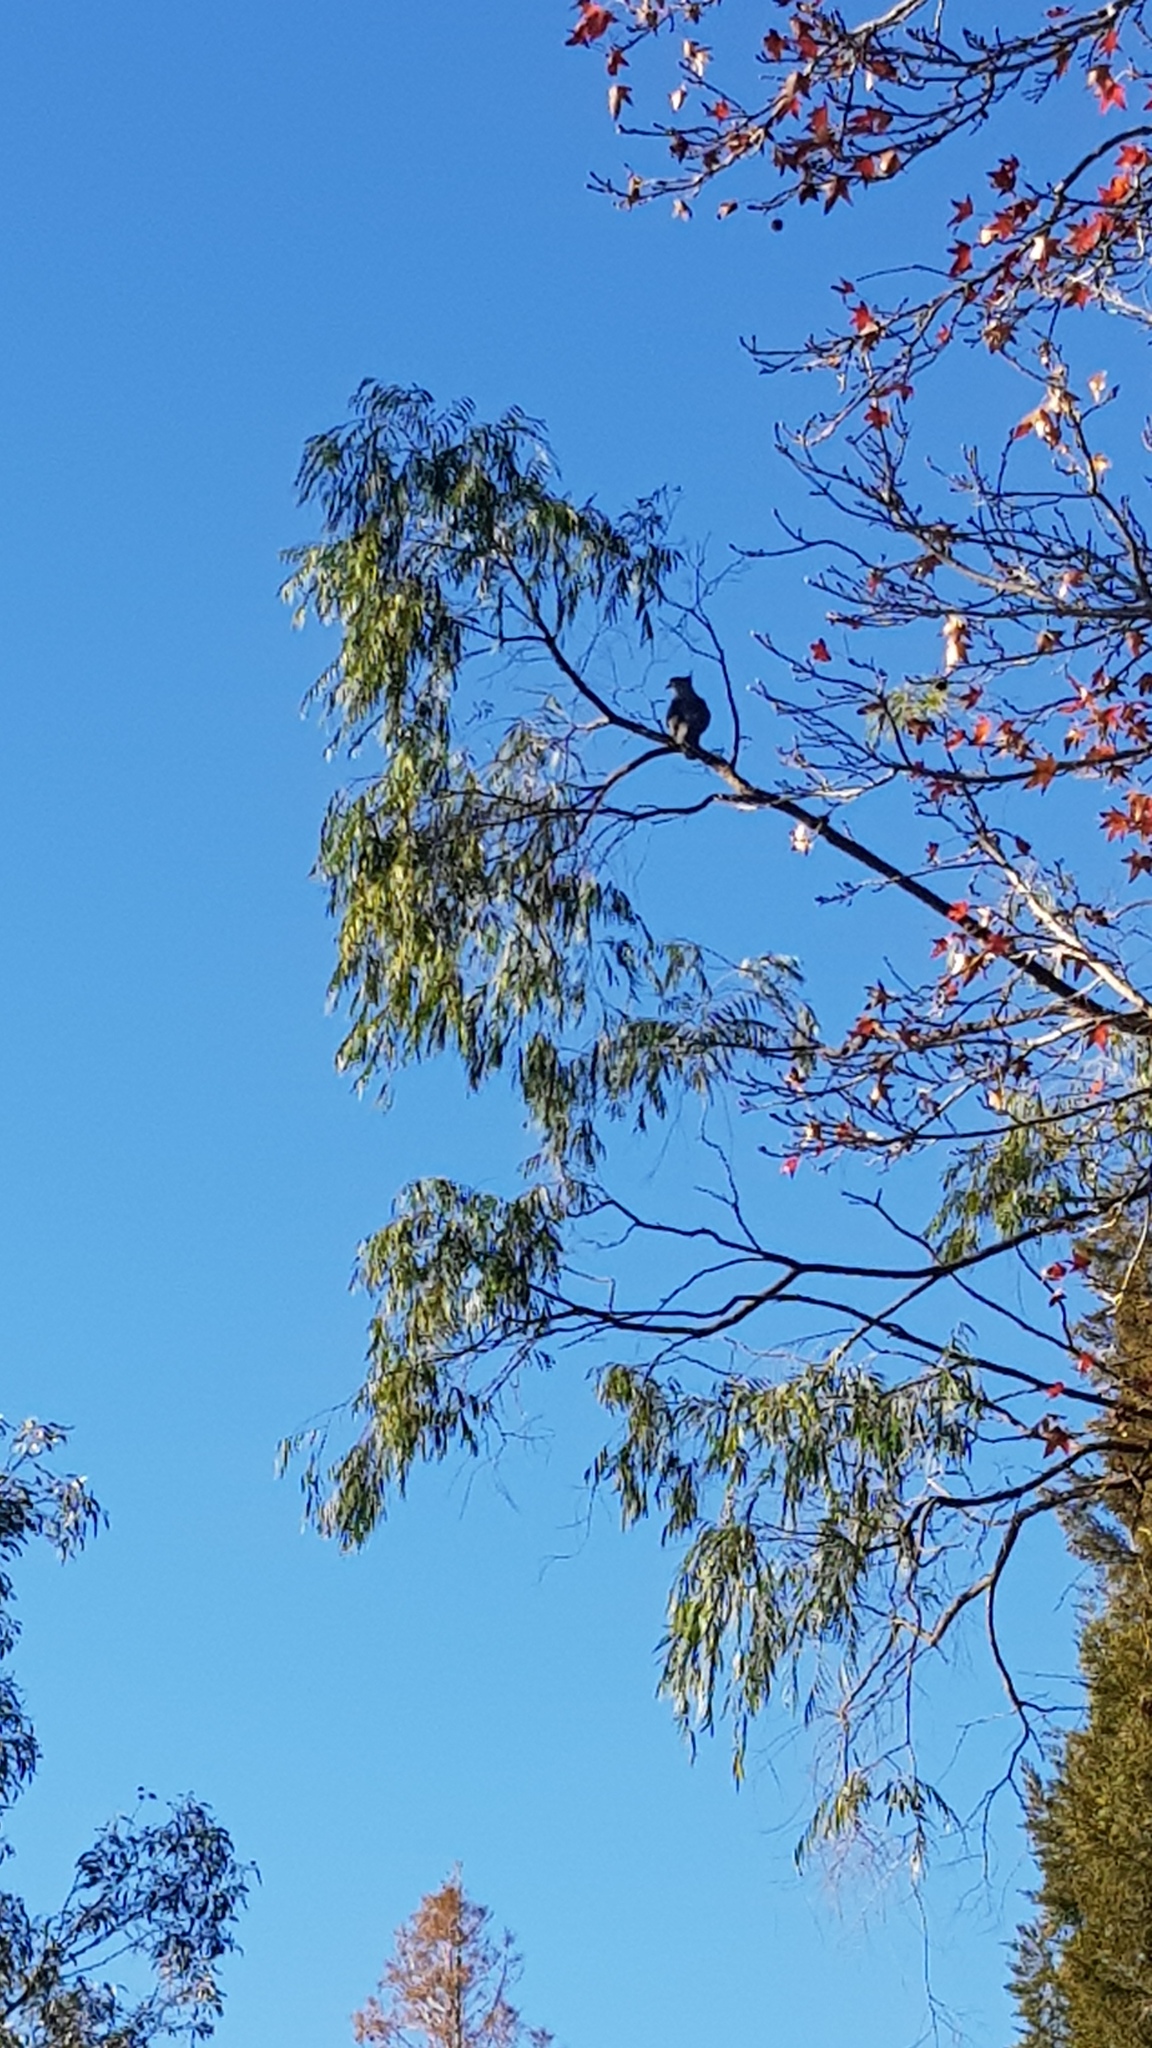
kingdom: Animalia
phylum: Chordata
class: Aves
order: Accipitriformes
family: Accipitridae
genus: Aviceda
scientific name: Aviceda subcristata
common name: Pacific baza
